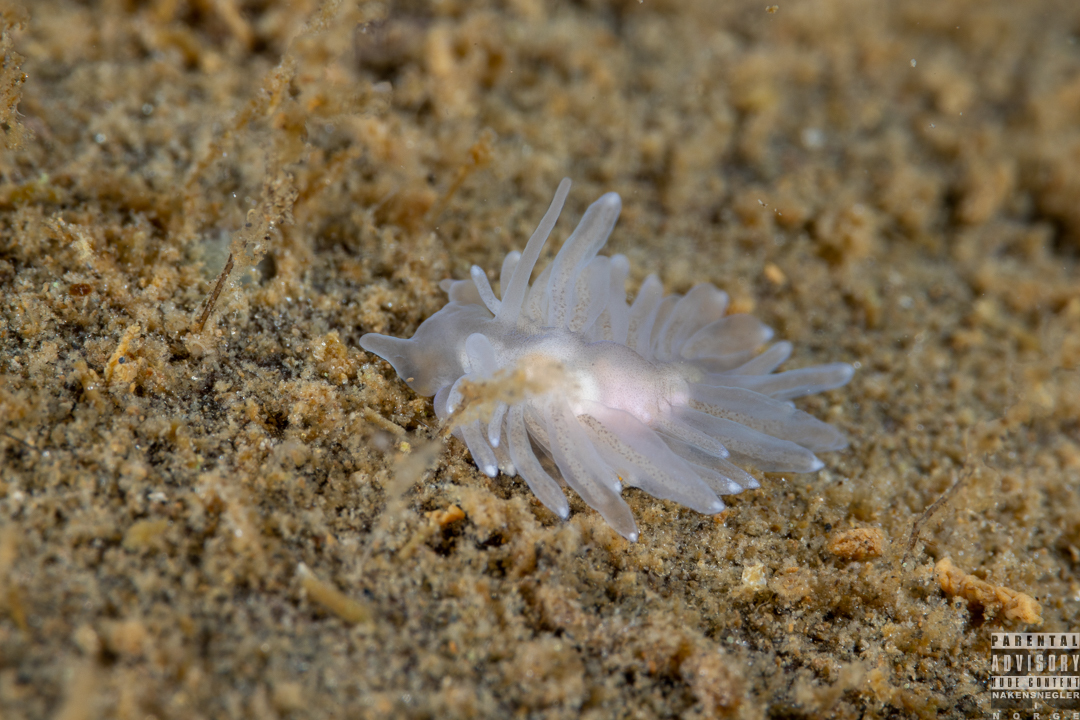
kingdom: Animalia
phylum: Mollusca
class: Gastropoda
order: Nudibranchia
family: Cuthonidae
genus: Bohuslania
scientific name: Bohuslania matsmichaeli
